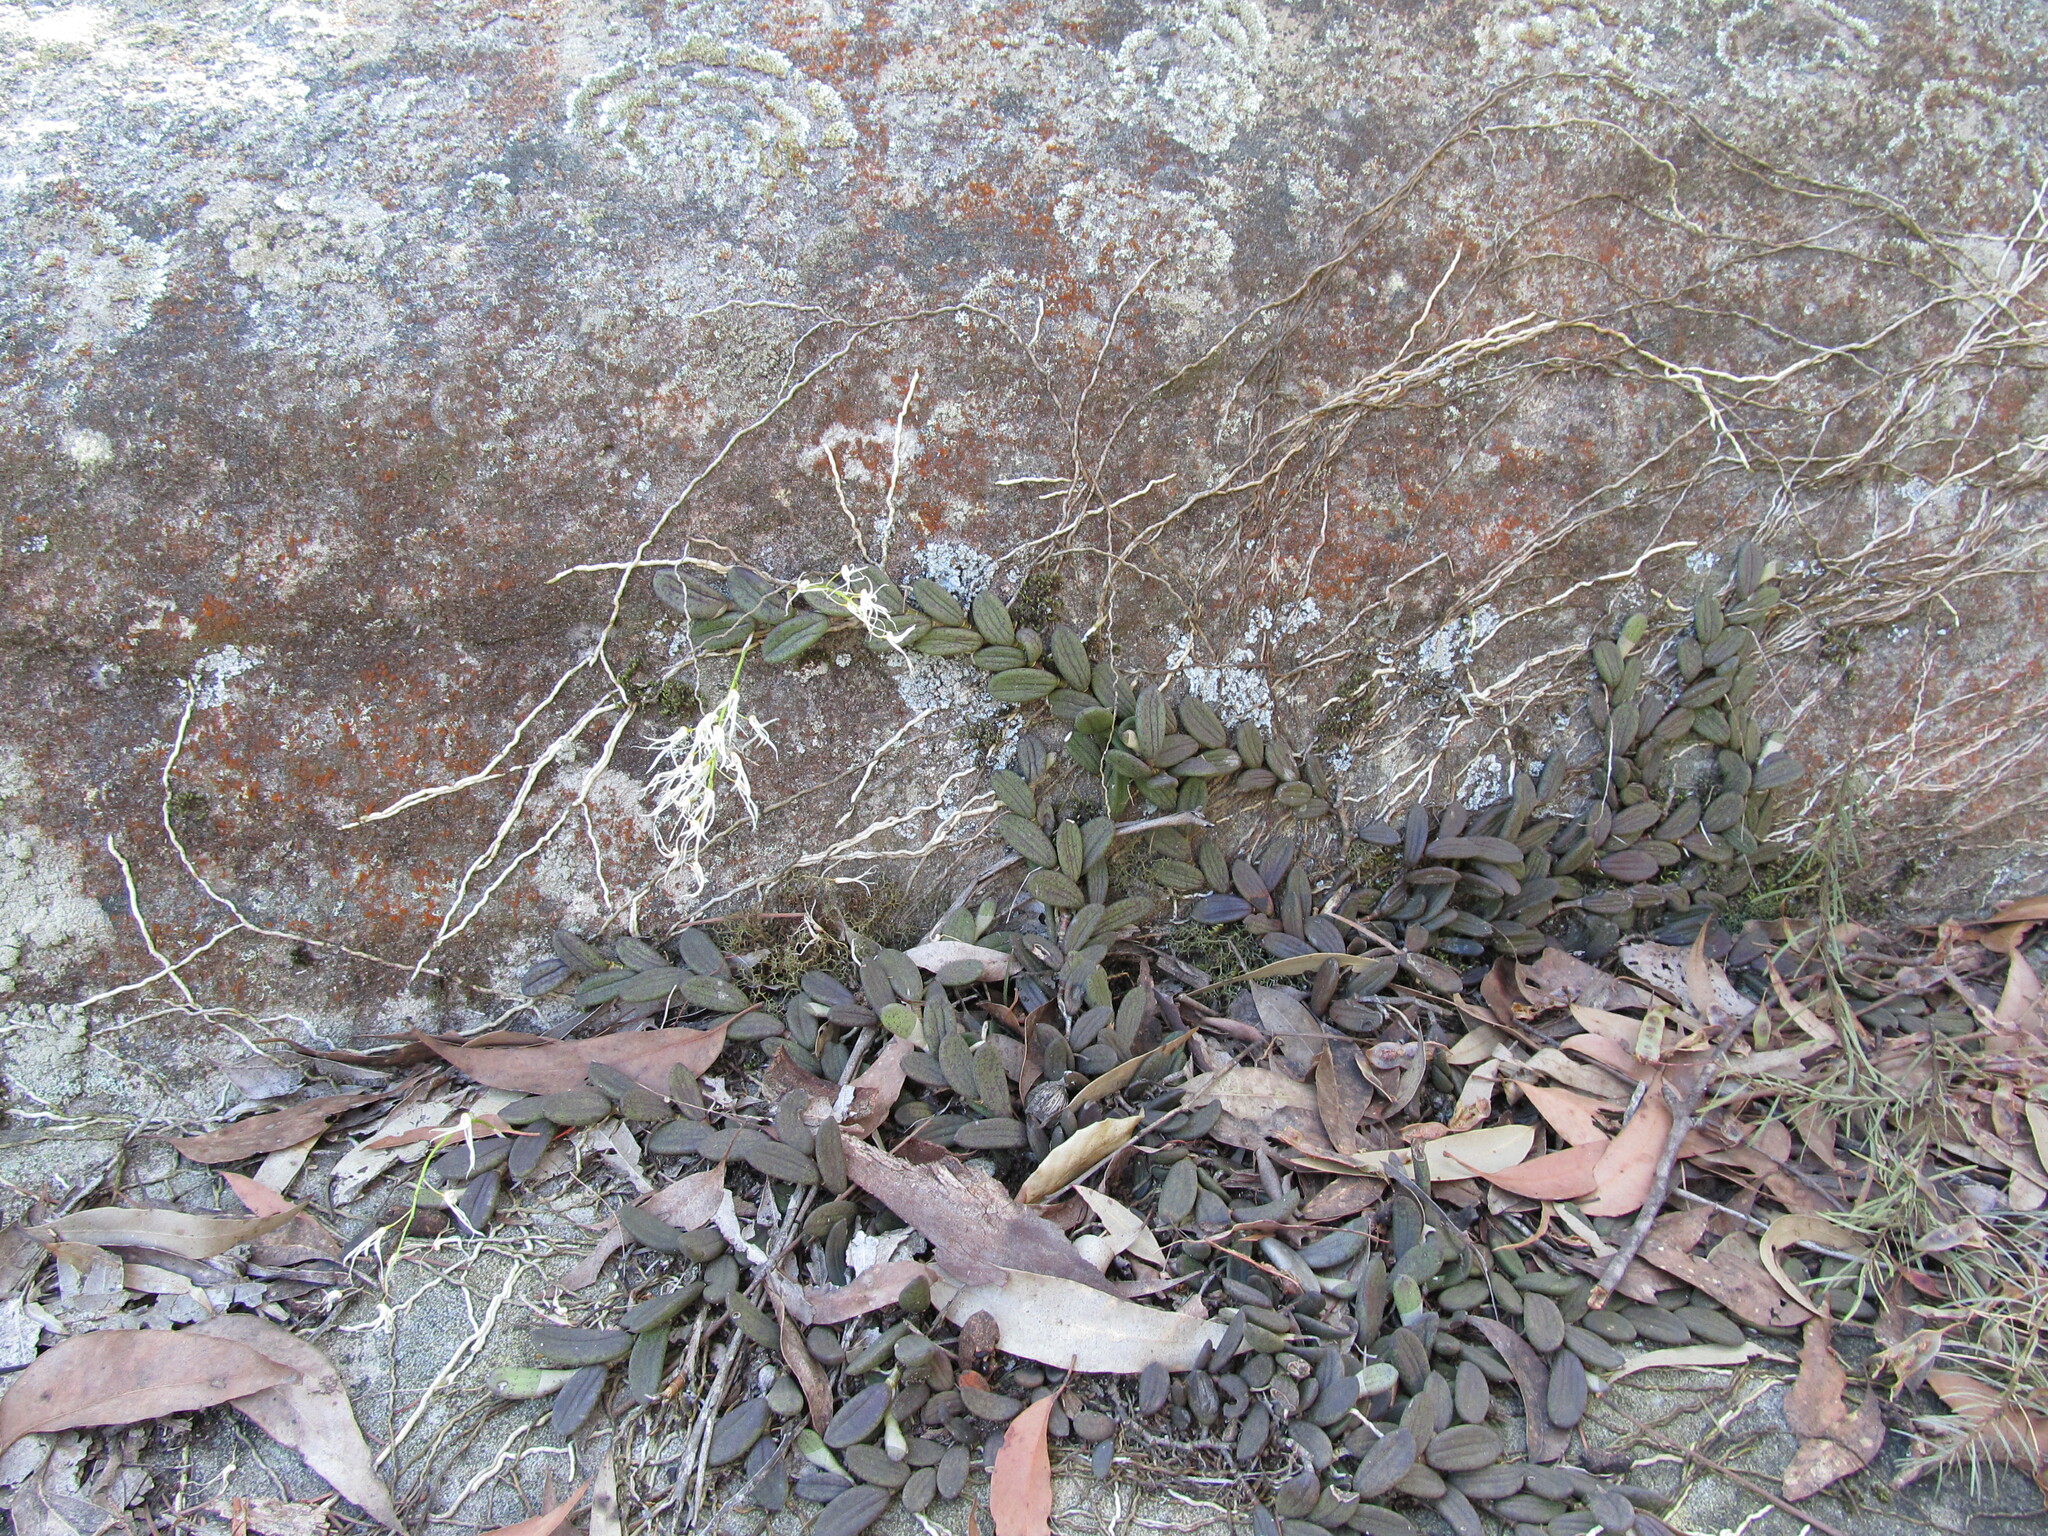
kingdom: Plantae
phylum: Tracheophyta
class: Liliopsida
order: Asparagales
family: Orchidaceae
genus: Dendrobium
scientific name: Dendrobium linguiforme
